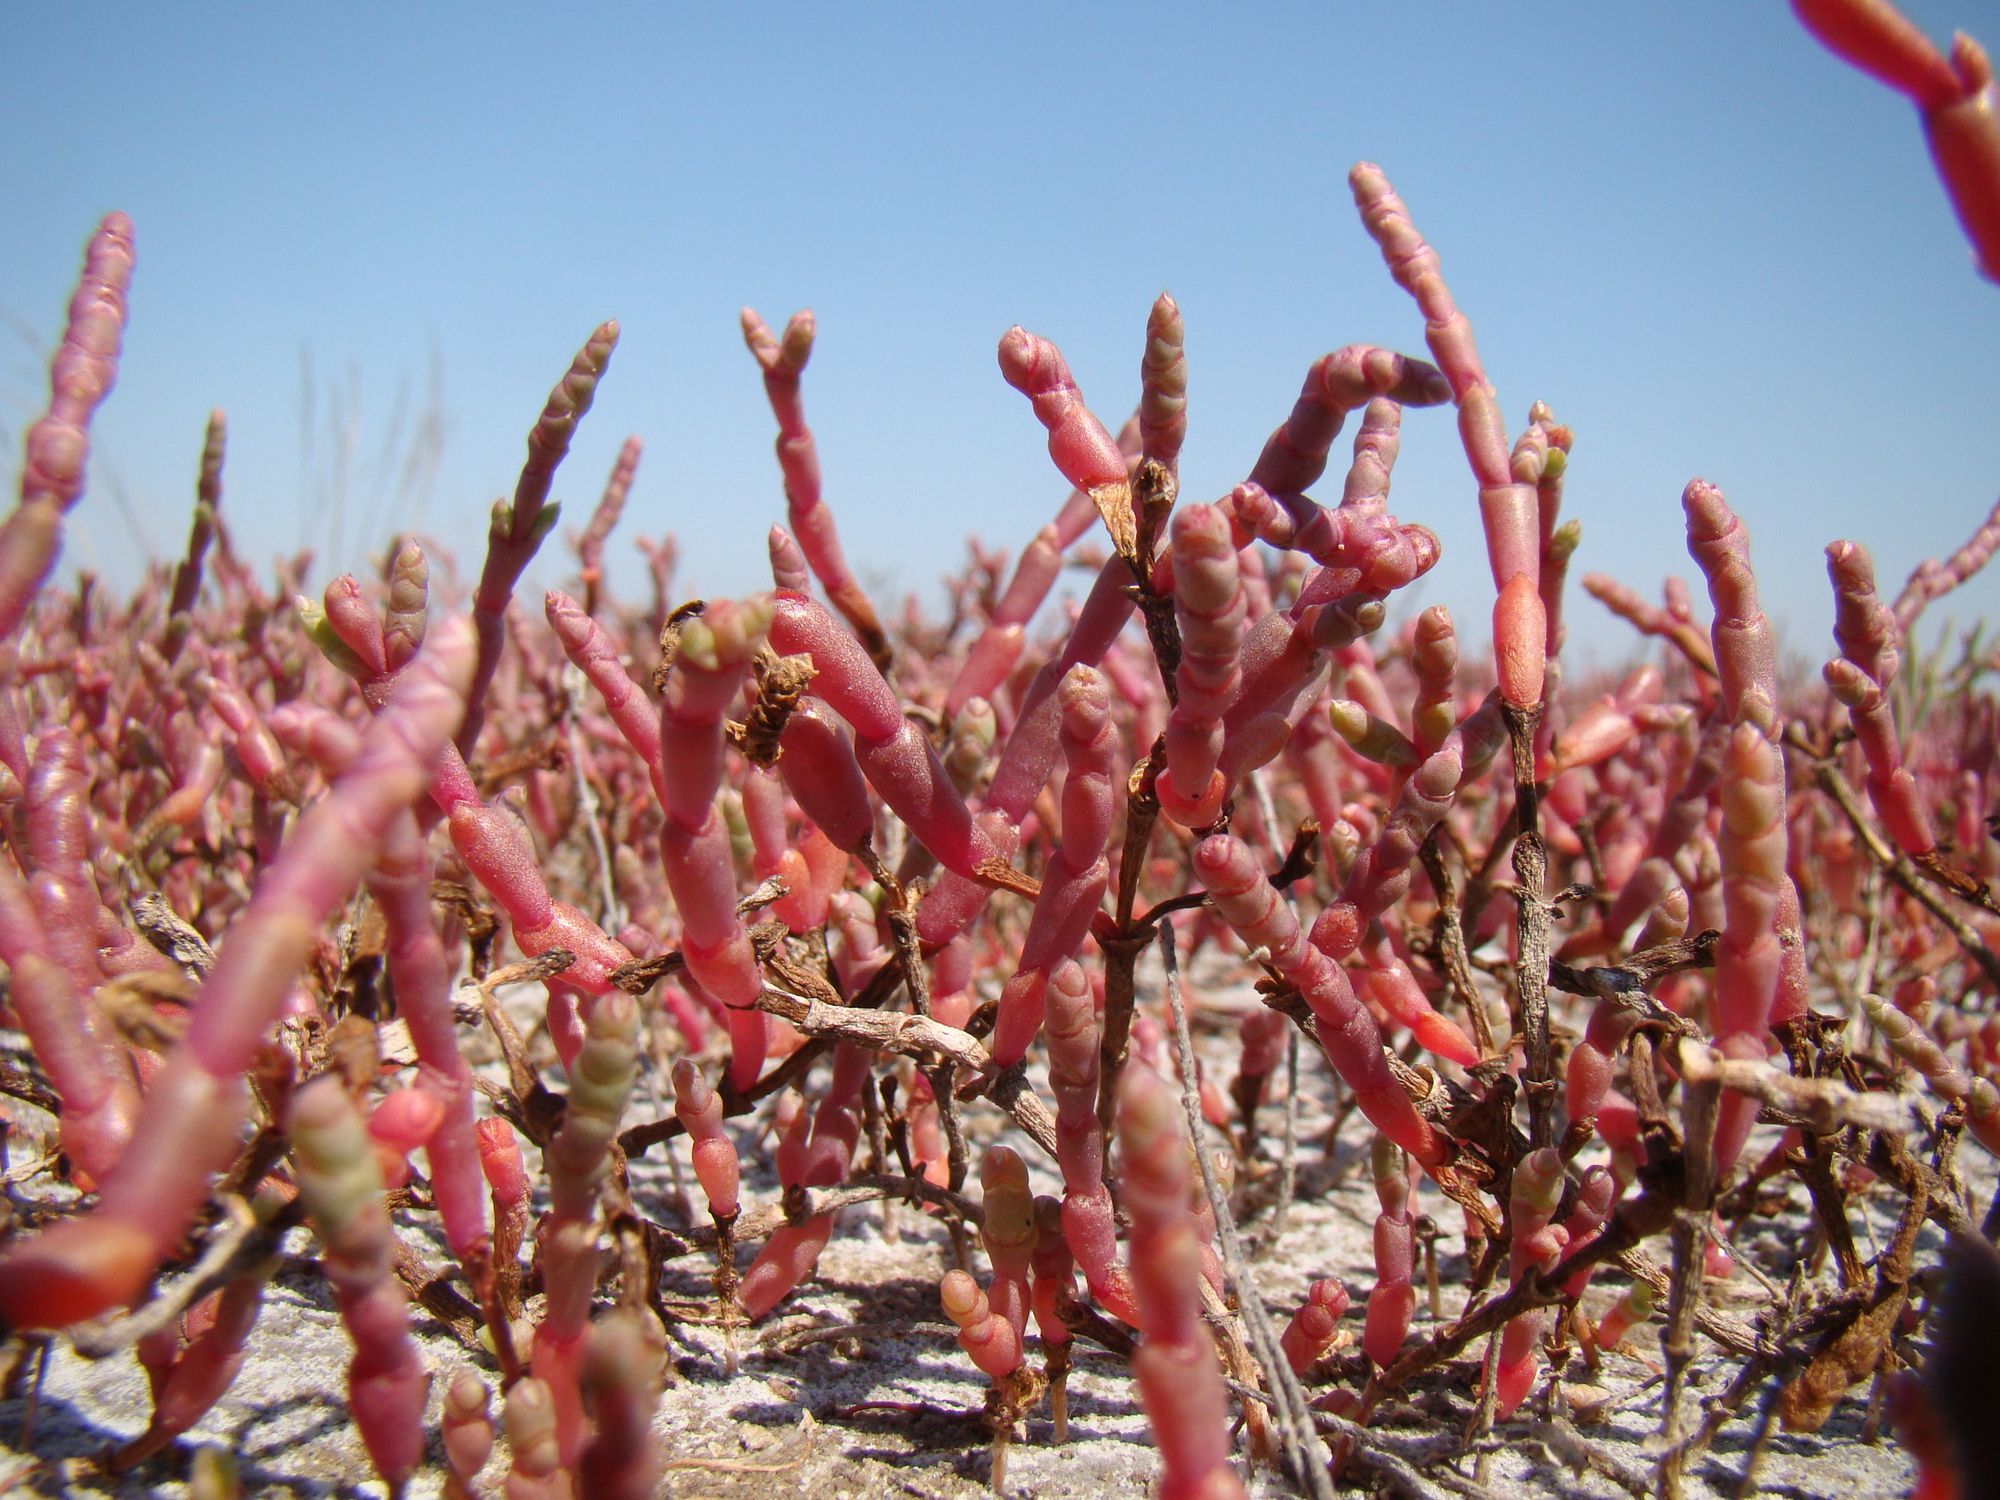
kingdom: Plantae
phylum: Tracheophyta
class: Magnoliopsida
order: Caryophyllales
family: Amaranthaceae
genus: Salicornia
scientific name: Salicornia perennans
